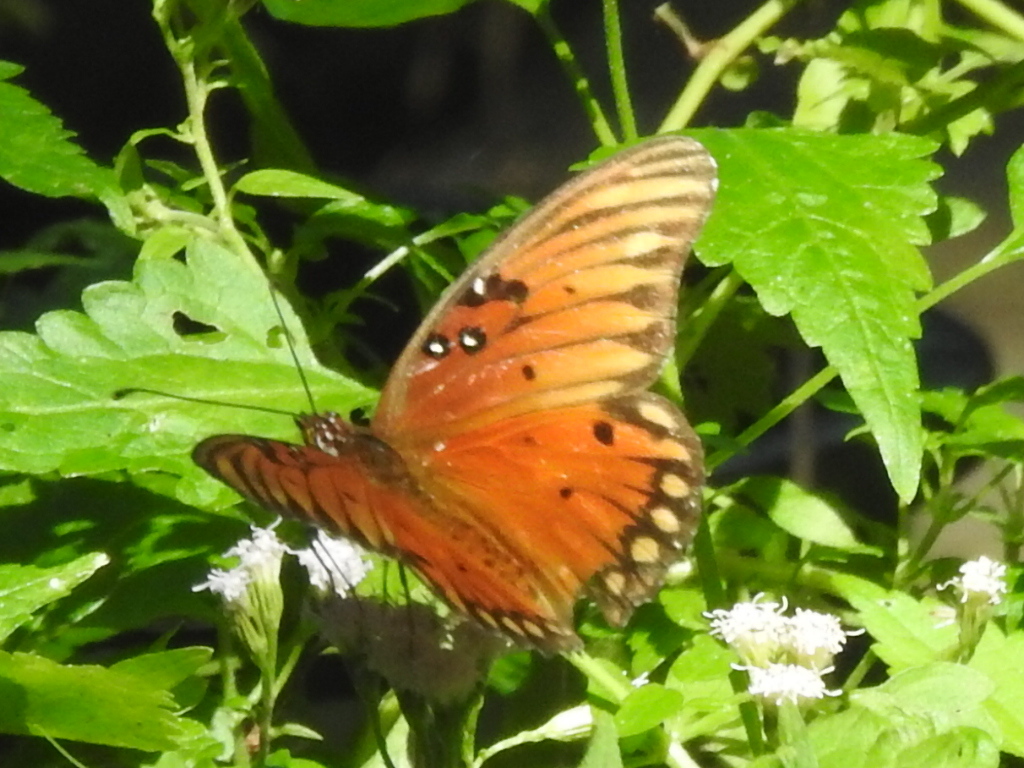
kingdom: Animalia
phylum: Arthropoda
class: Insecta
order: Lepidoptera
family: Nymphalidae
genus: Dione
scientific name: Dione vanillae
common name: Gulf fritillary
